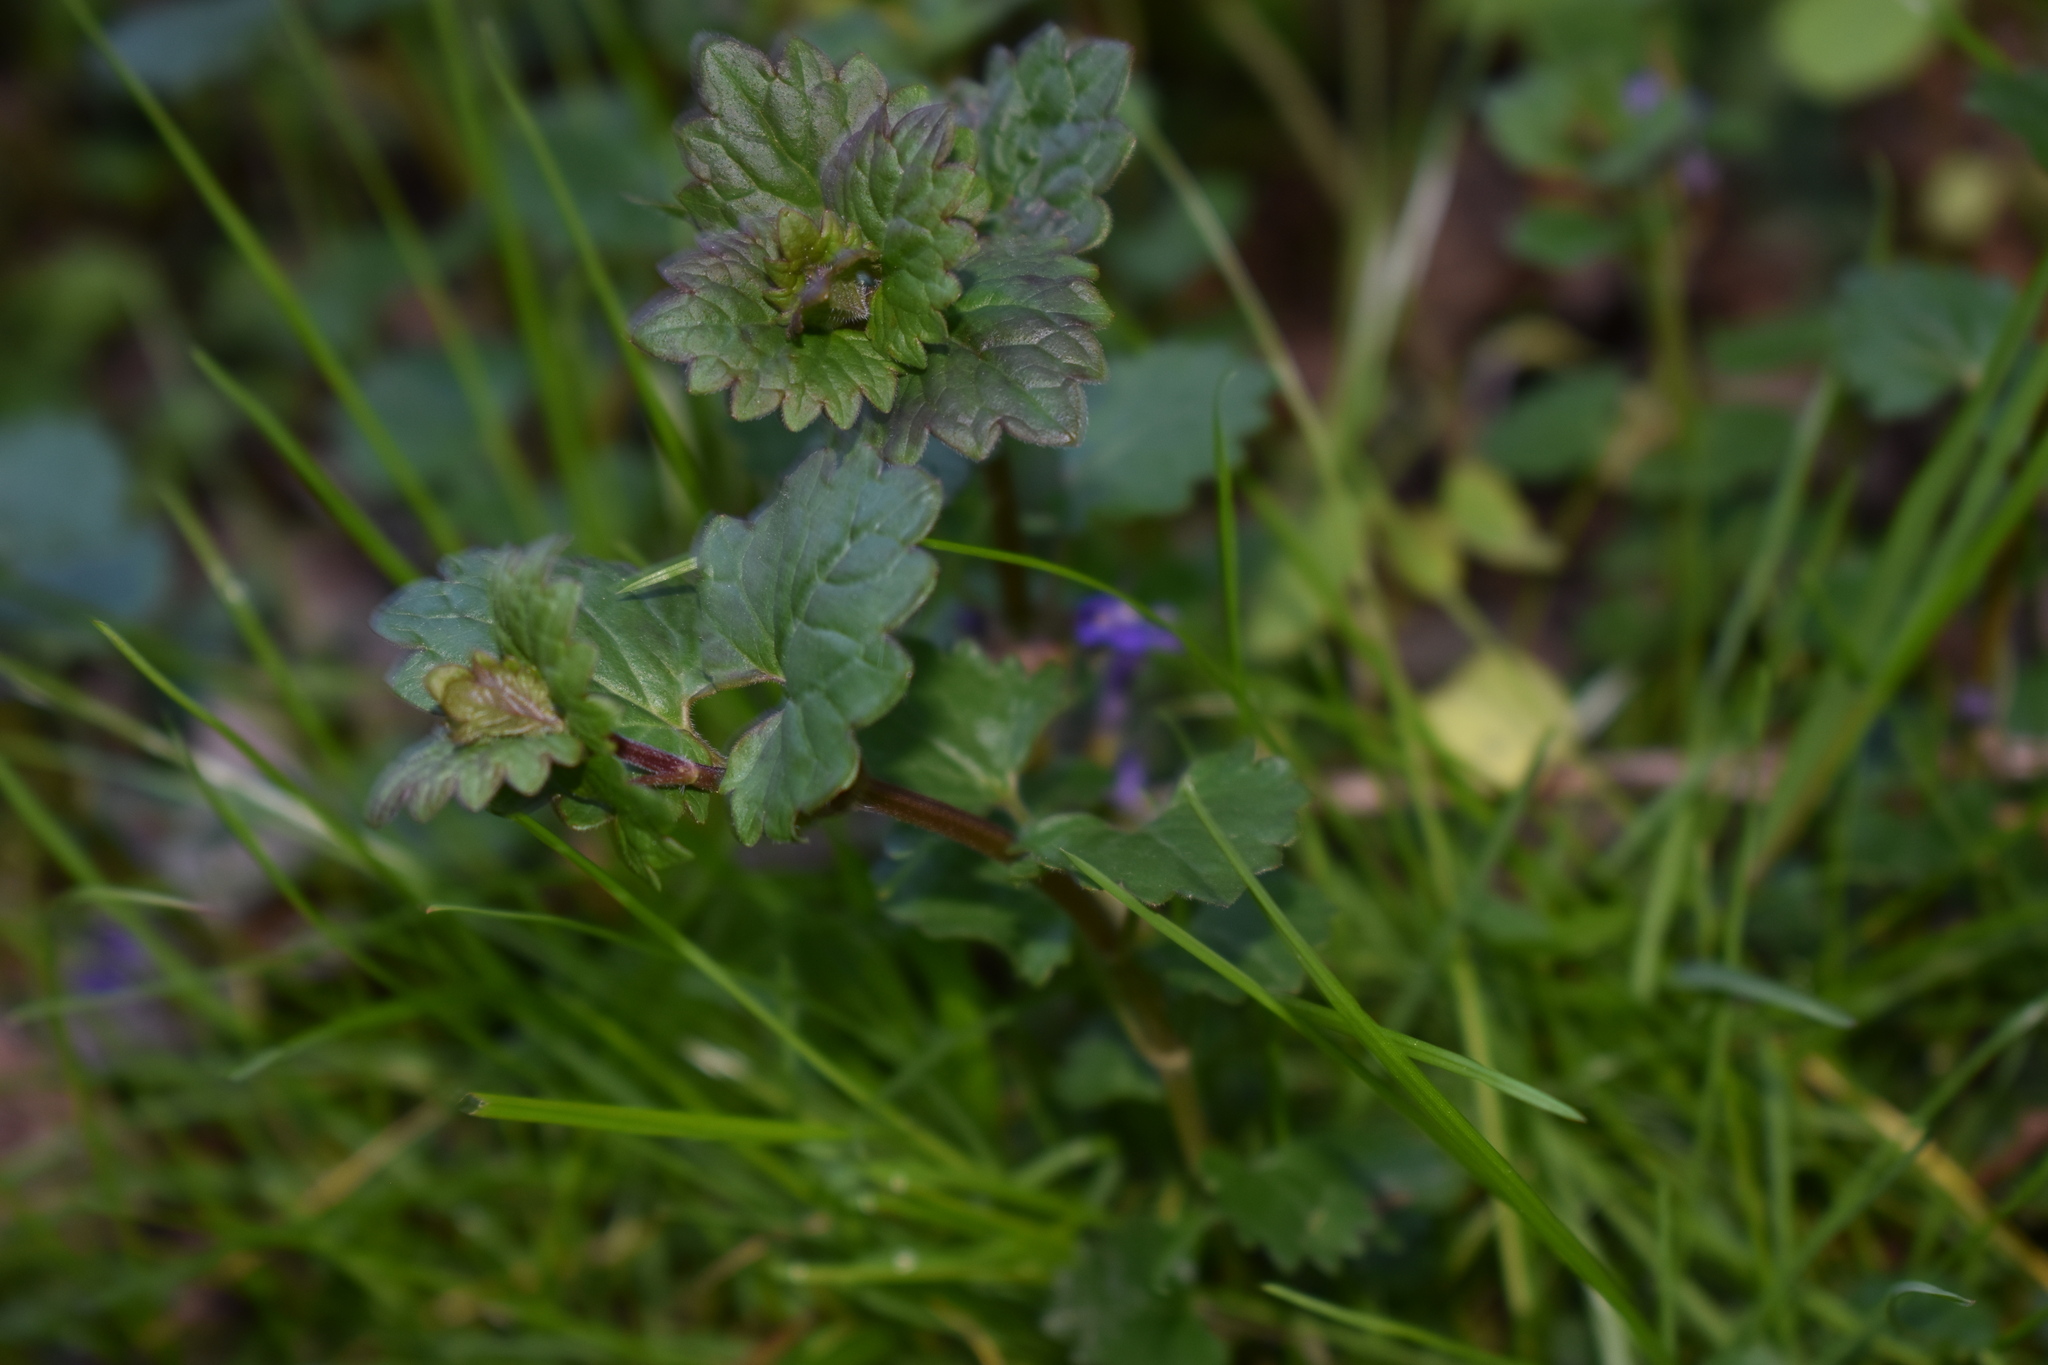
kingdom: Plantae
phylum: Tracheophyta
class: Magnoliopsida
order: Lamiales
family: Lamiaceae
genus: Glechoma
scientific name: Glechoma hederacea
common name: Ground ivy
